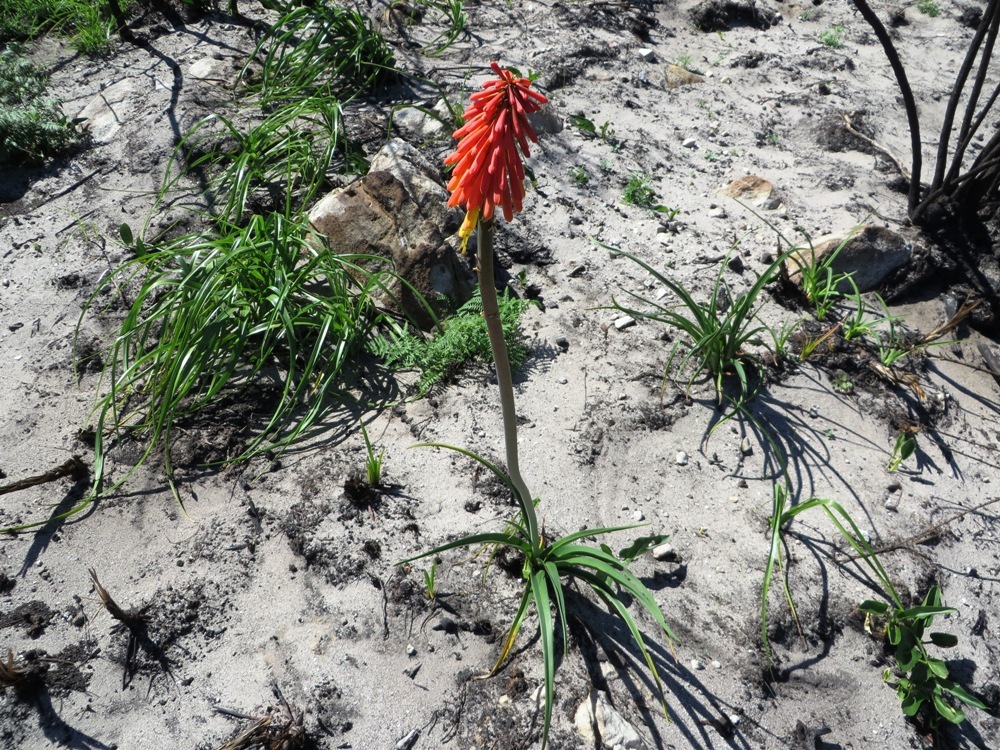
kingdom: Plantae
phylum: Tracheophyta
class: Liliopsida
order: Asparagales
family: Asphodelaceae
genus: Kniphofia
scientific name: Kniphofia uvaria
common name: Red-hot-poker
